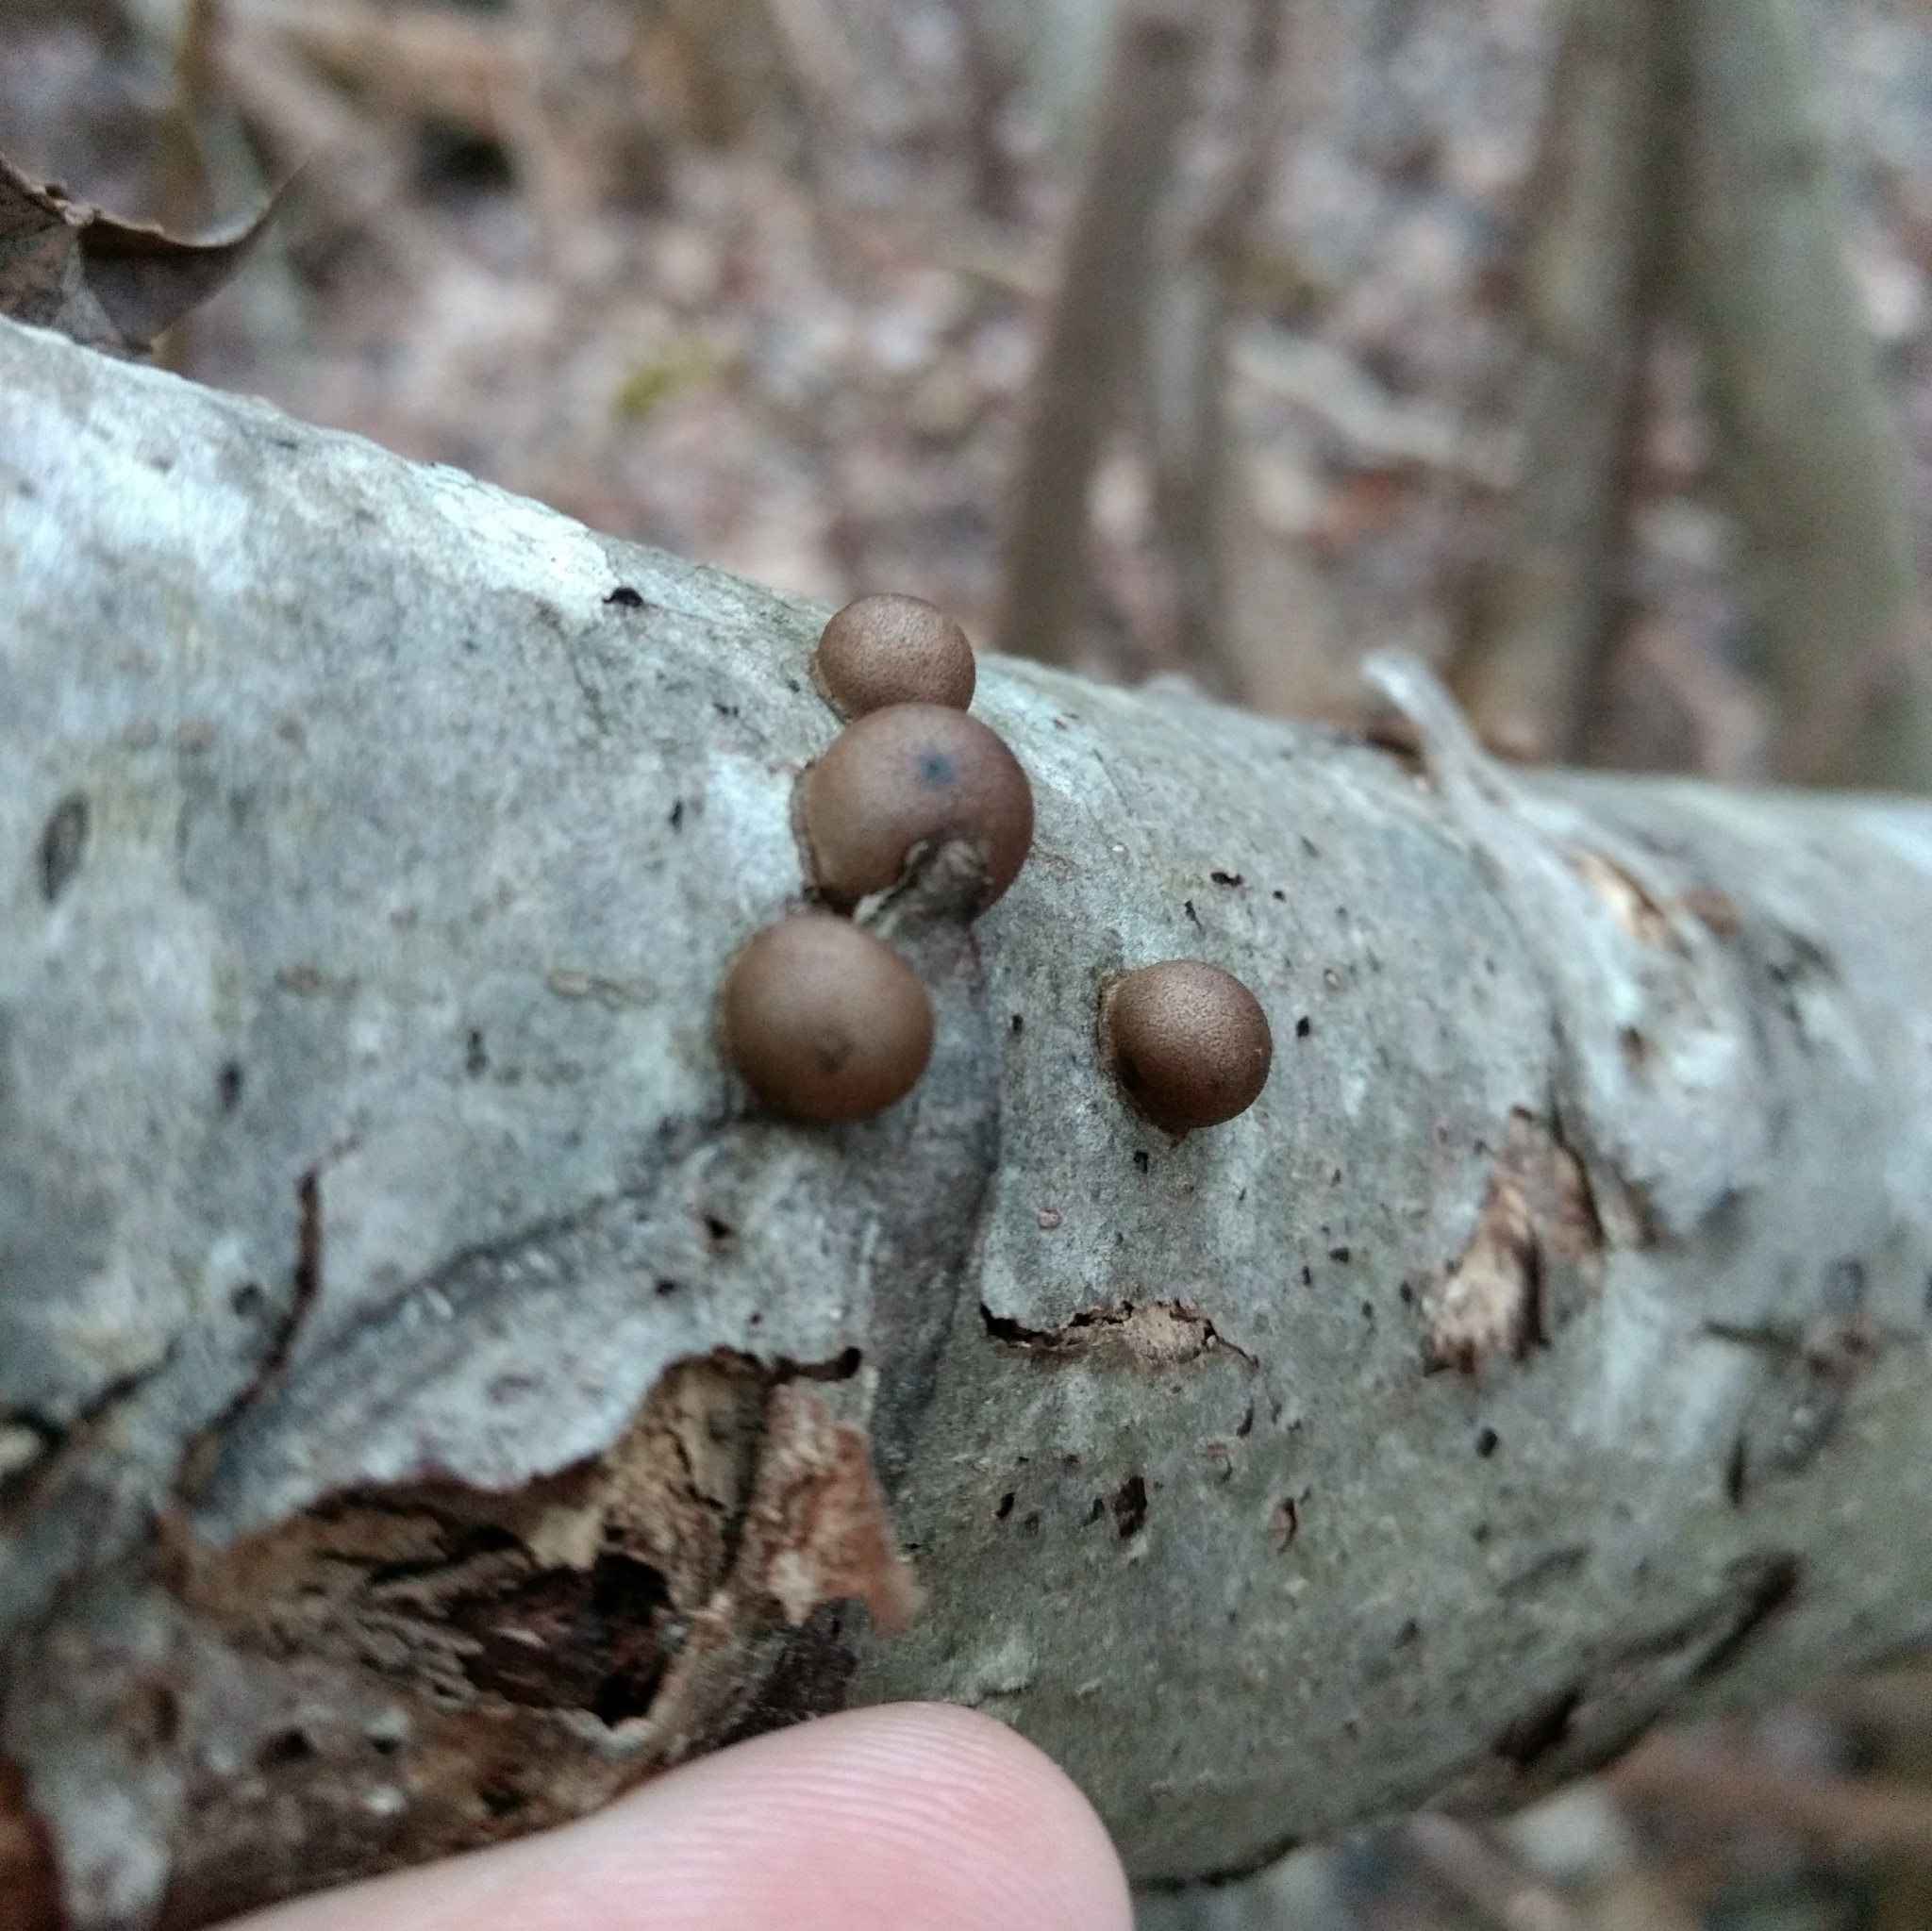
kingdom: Protozoa
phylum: Mycetozoa
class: Myxomycetes
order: Cribrariales
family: Tubiferaceae
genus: Lycogala
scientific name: Lycogala epidendrum
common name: Wolf's milk
